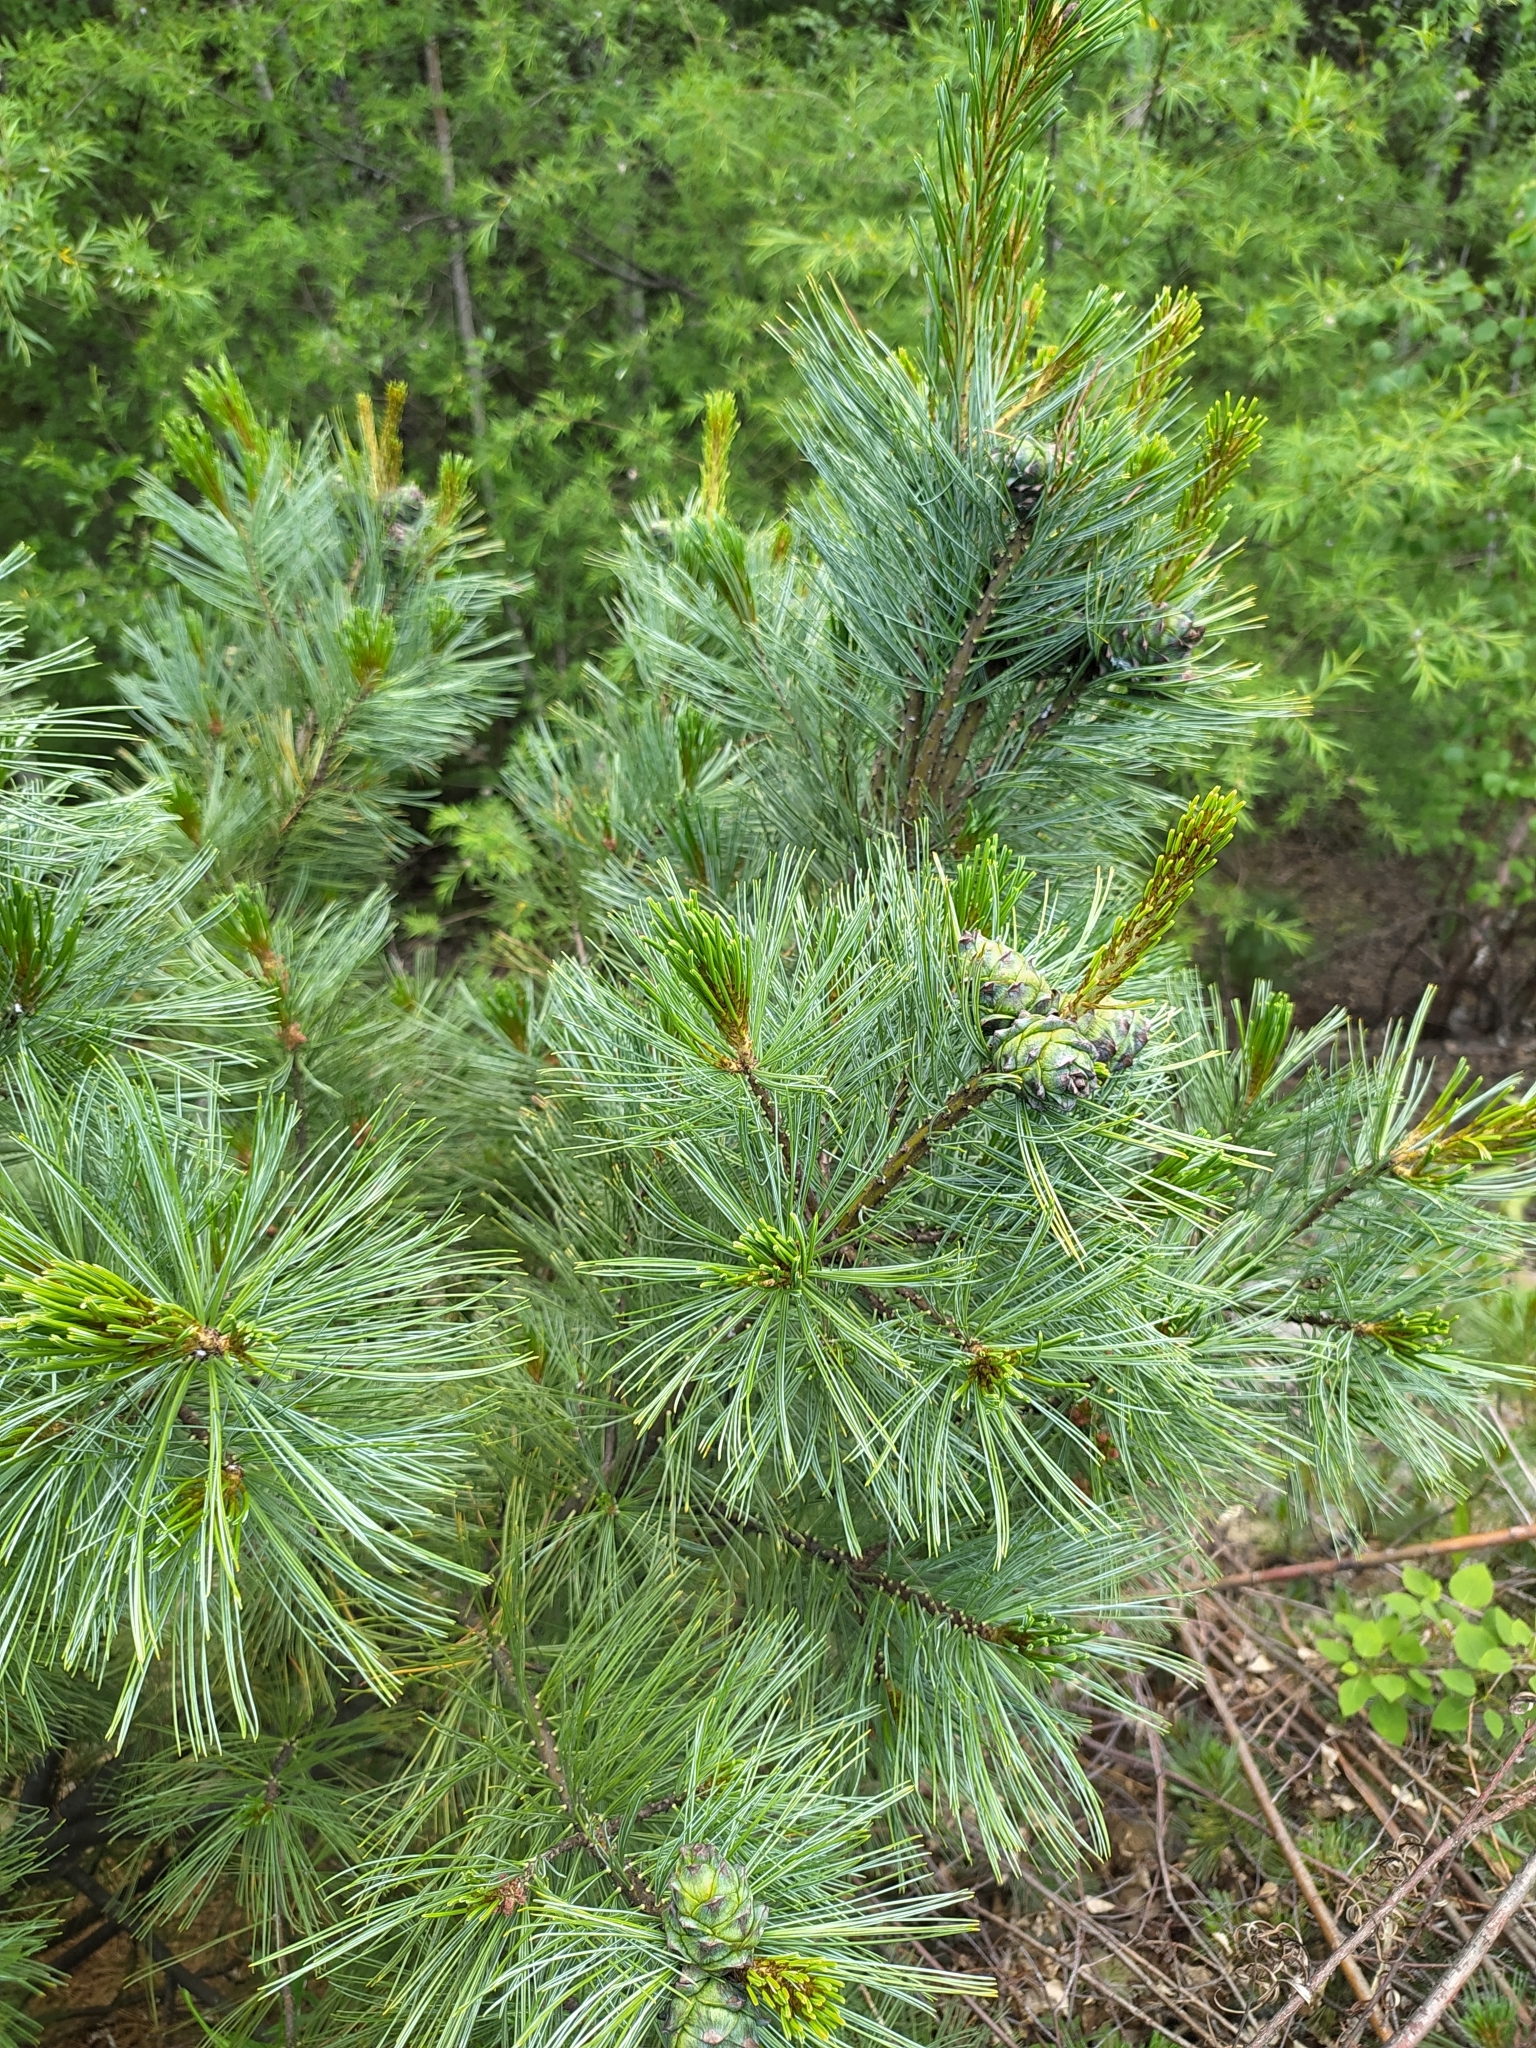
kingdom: Plantae
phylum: Tracheophyta
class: Pinopsida
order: Pinales
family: Pinaceae
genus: Pinus
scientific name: Pinus pumila
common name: Dwarf siberian pine
